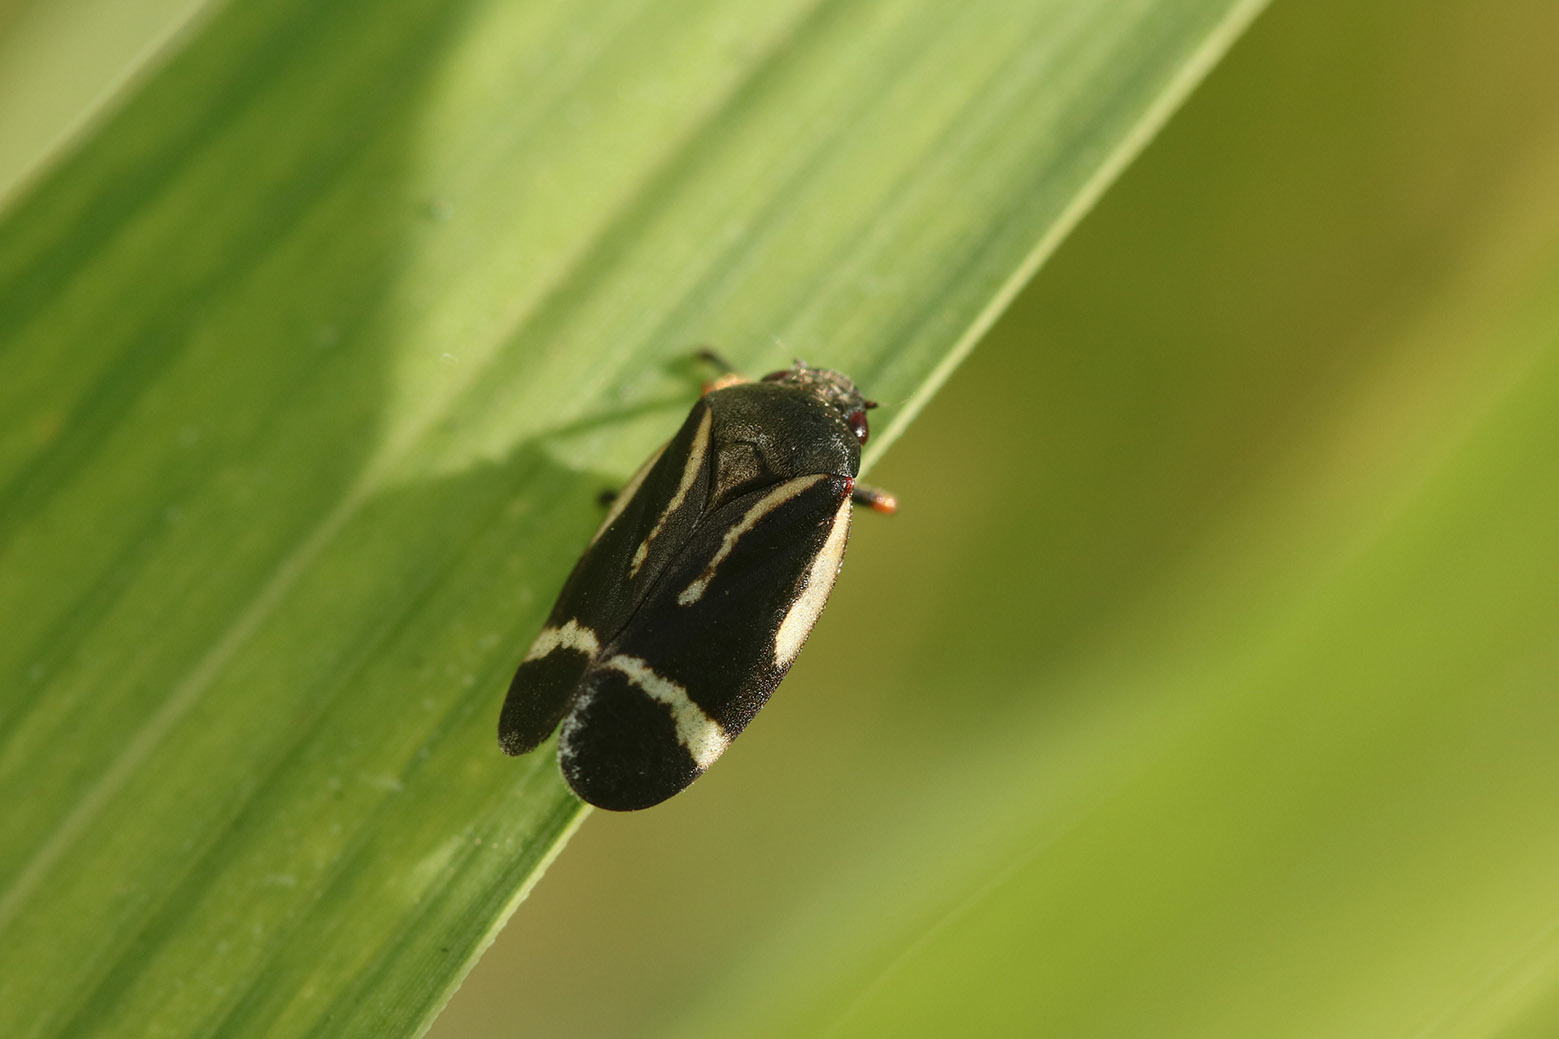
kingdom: Animalia
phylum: Arthropoda
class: Insecta
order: Hemiptera
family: Cercopidae
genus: Notozulia
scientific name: Notozulia entreriana
